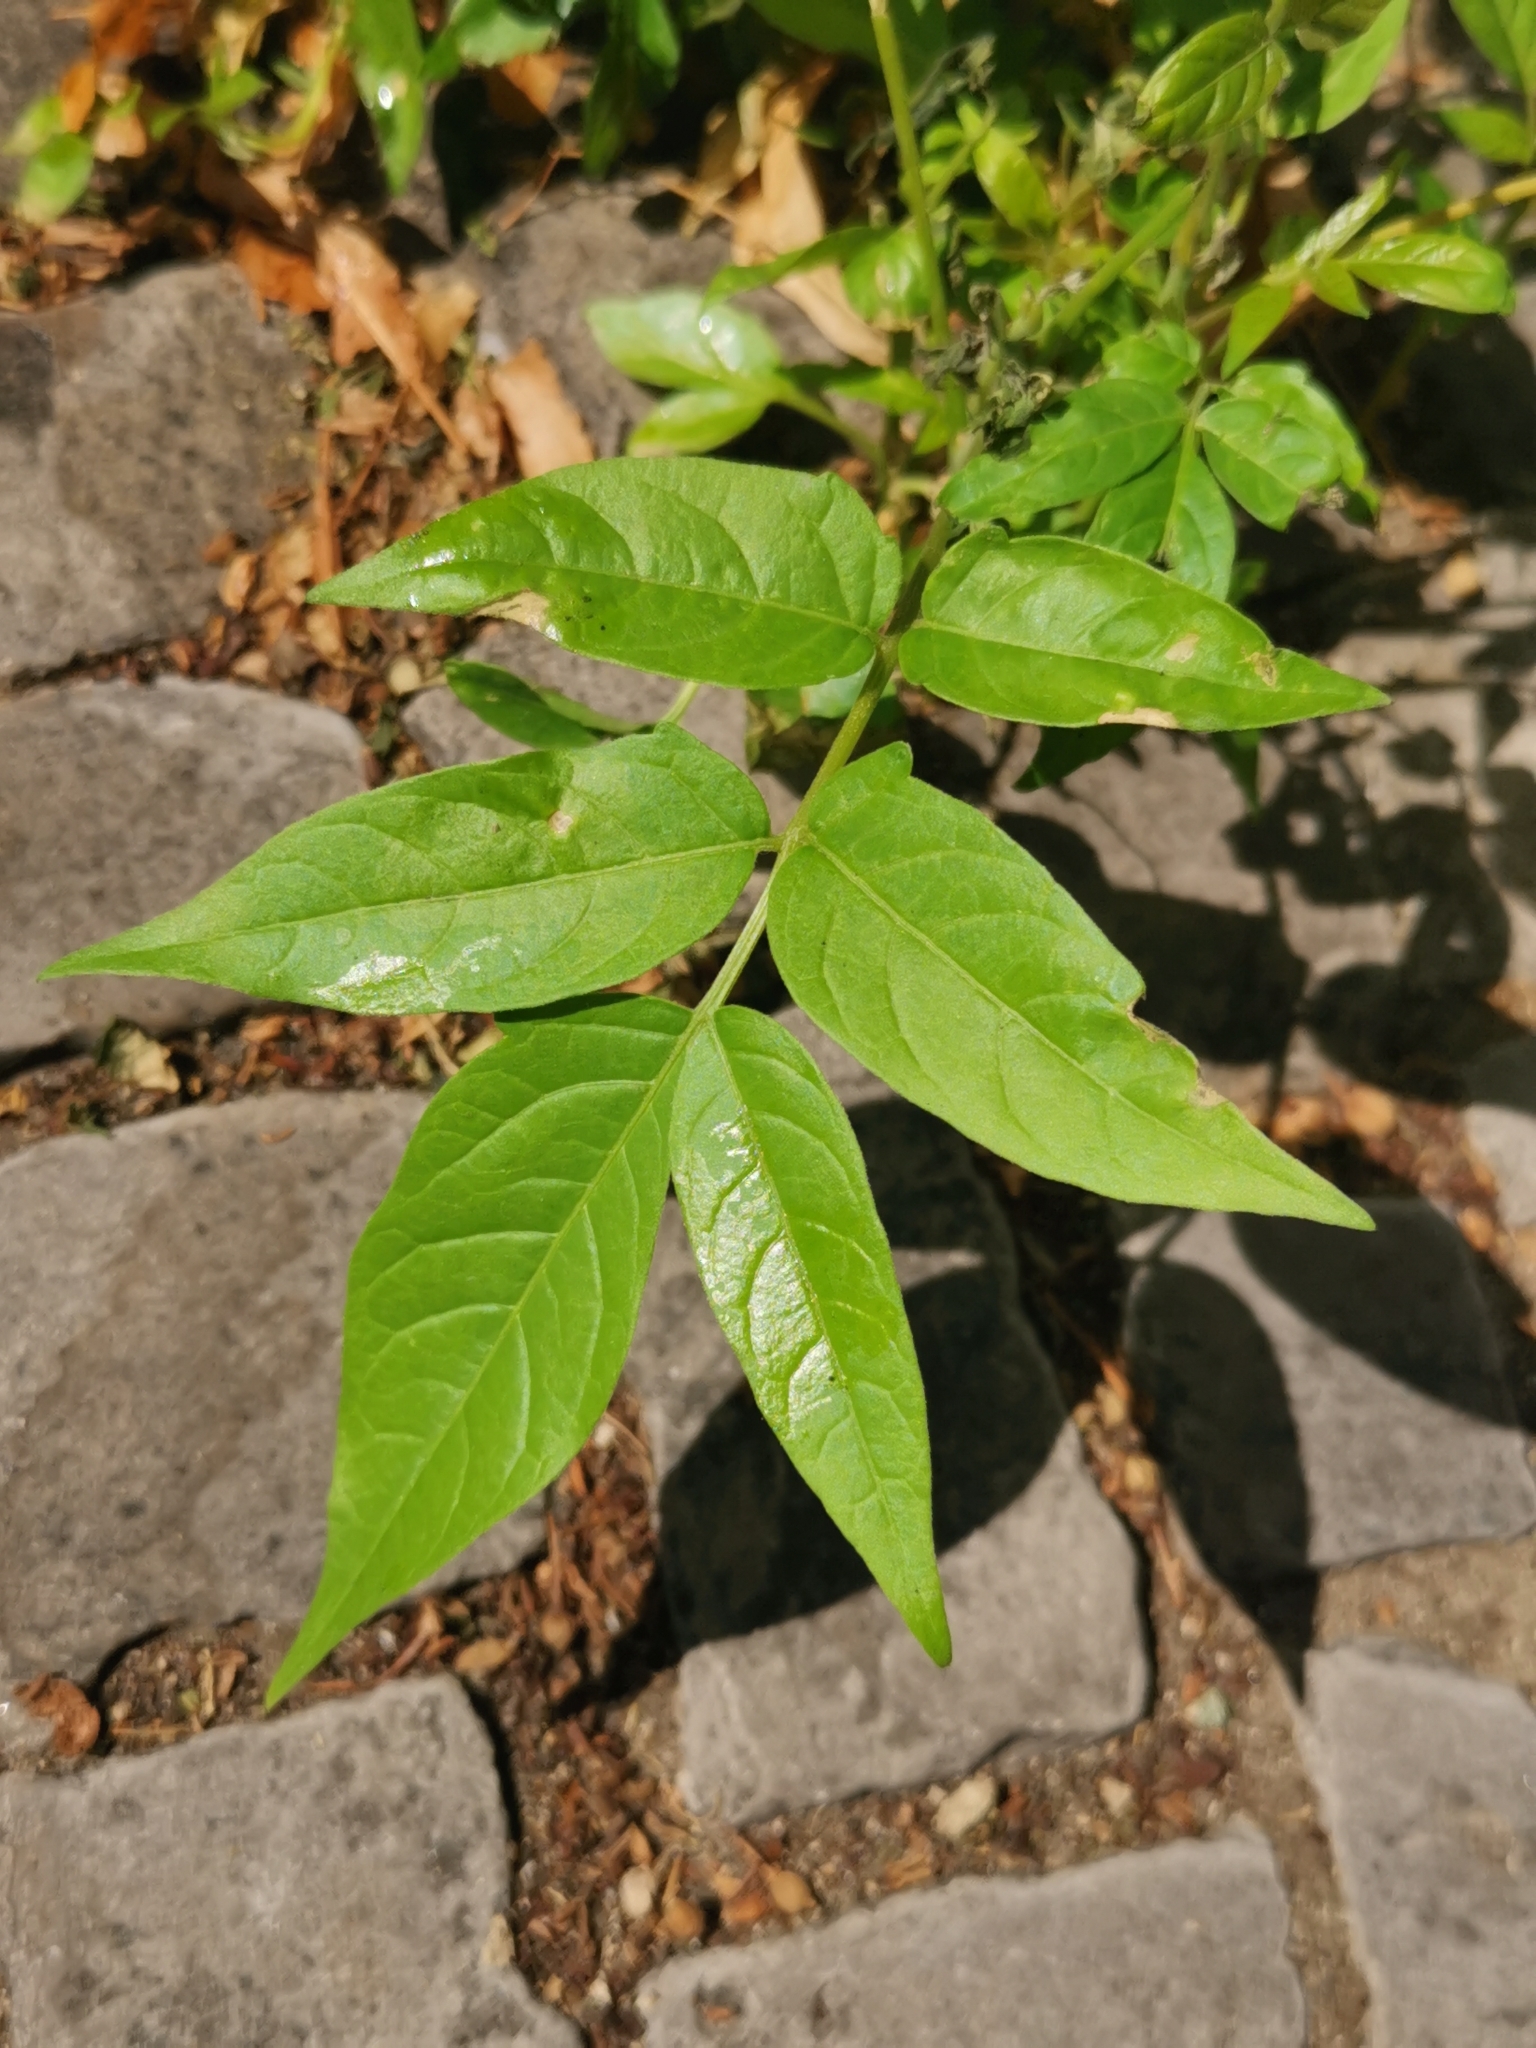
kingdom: Plantae
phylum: Tracheophyta
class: Magnoliopsida
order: Sapindales
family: Simaroubaceae
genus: Ailanthus
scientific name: Ailanthus altissima
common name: Tree-of-heaven
